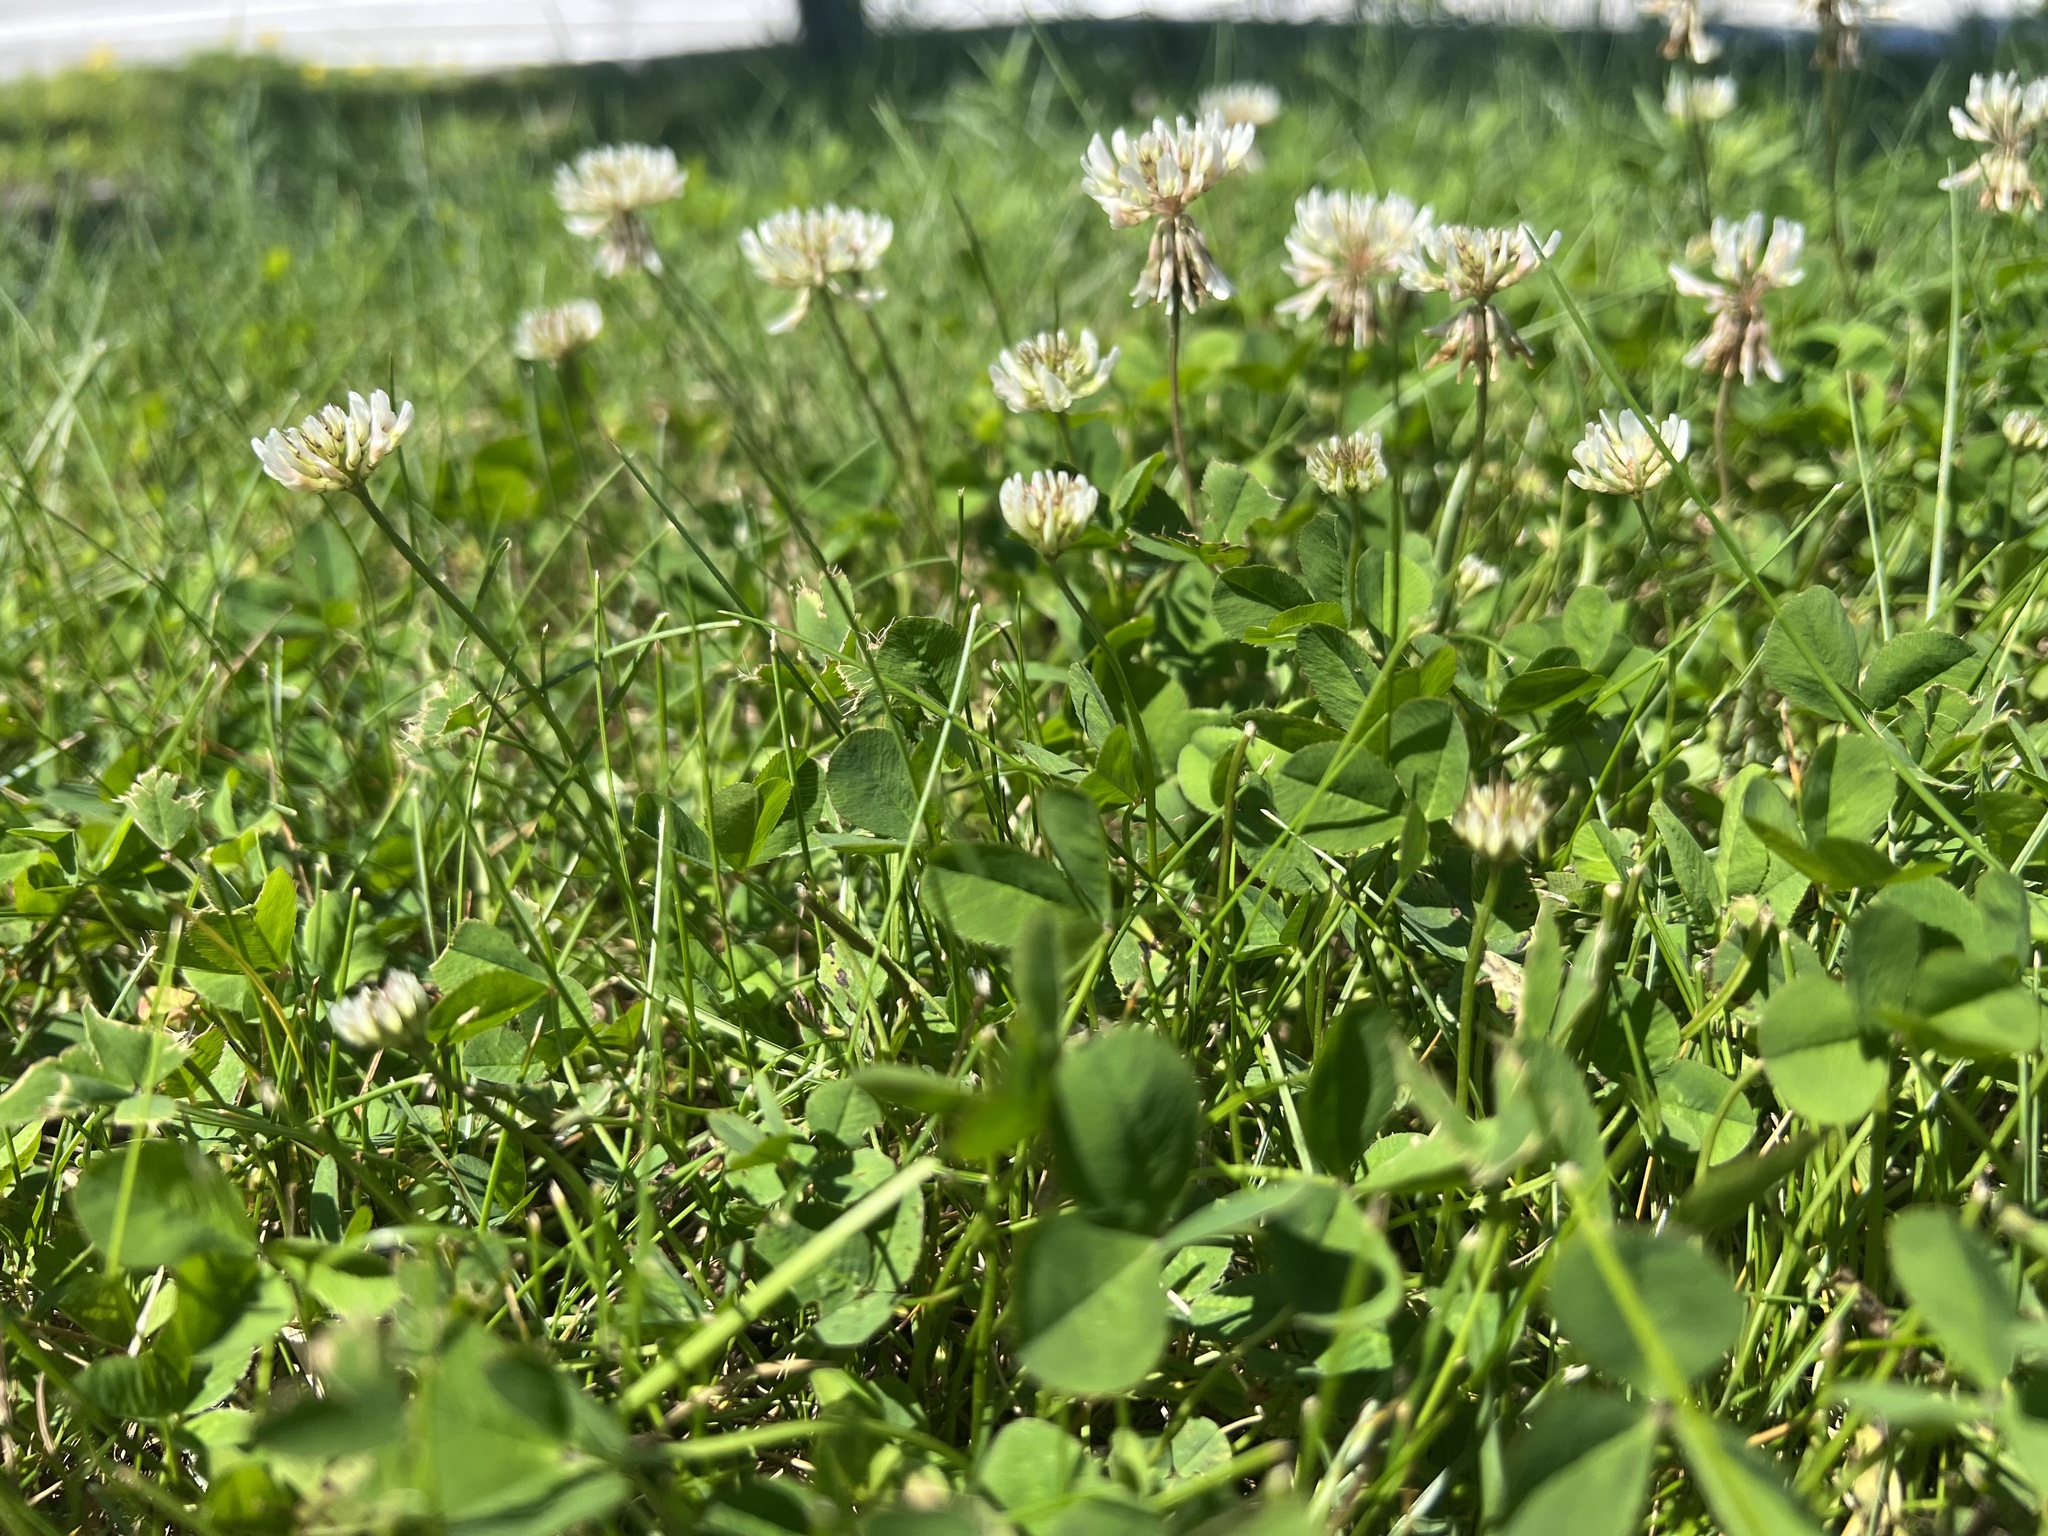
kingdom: Plantae
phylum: Tracheophyta
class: Magnoliopsida
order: Fabales
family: Fabaceae
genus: Trifolium
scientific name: Trifolium repens
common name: White clover
